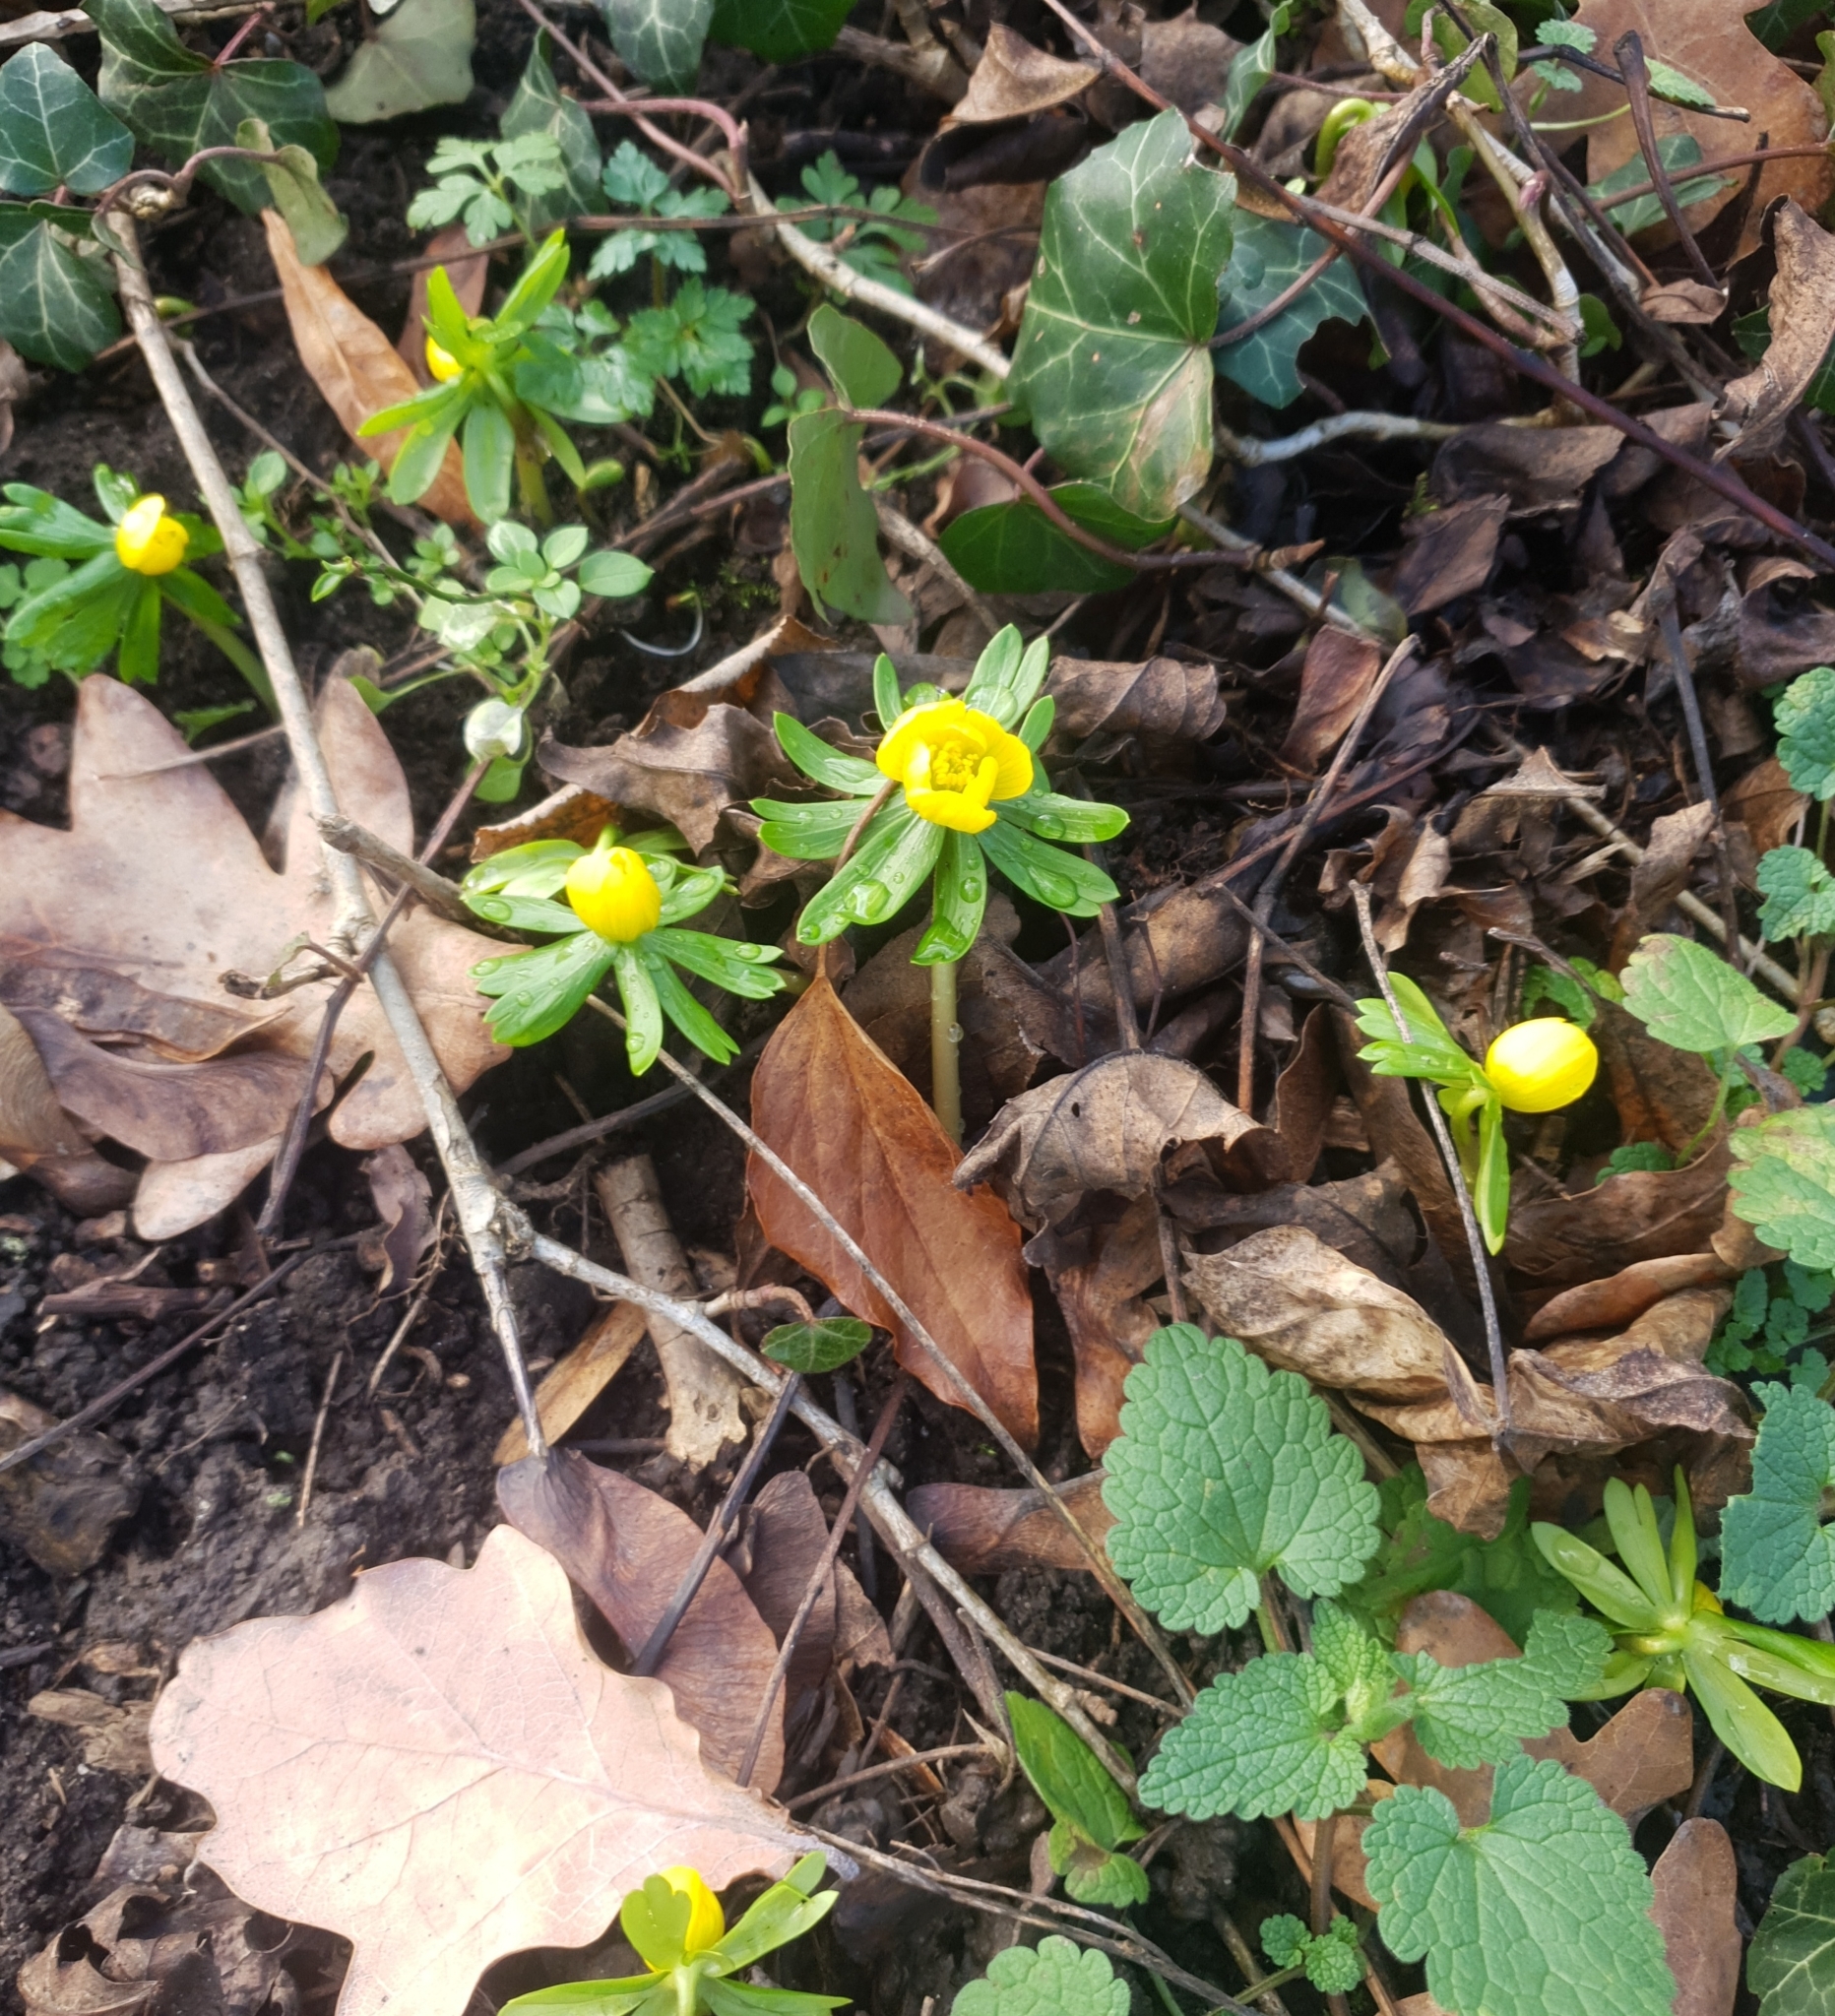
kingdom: Plantae
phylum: Tracheophyta
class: Magnoliopsida
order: Ranunculales
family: Ranunculaceae
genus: Eranthis
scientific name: Eranthis hyemalis
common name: Winter aconite
